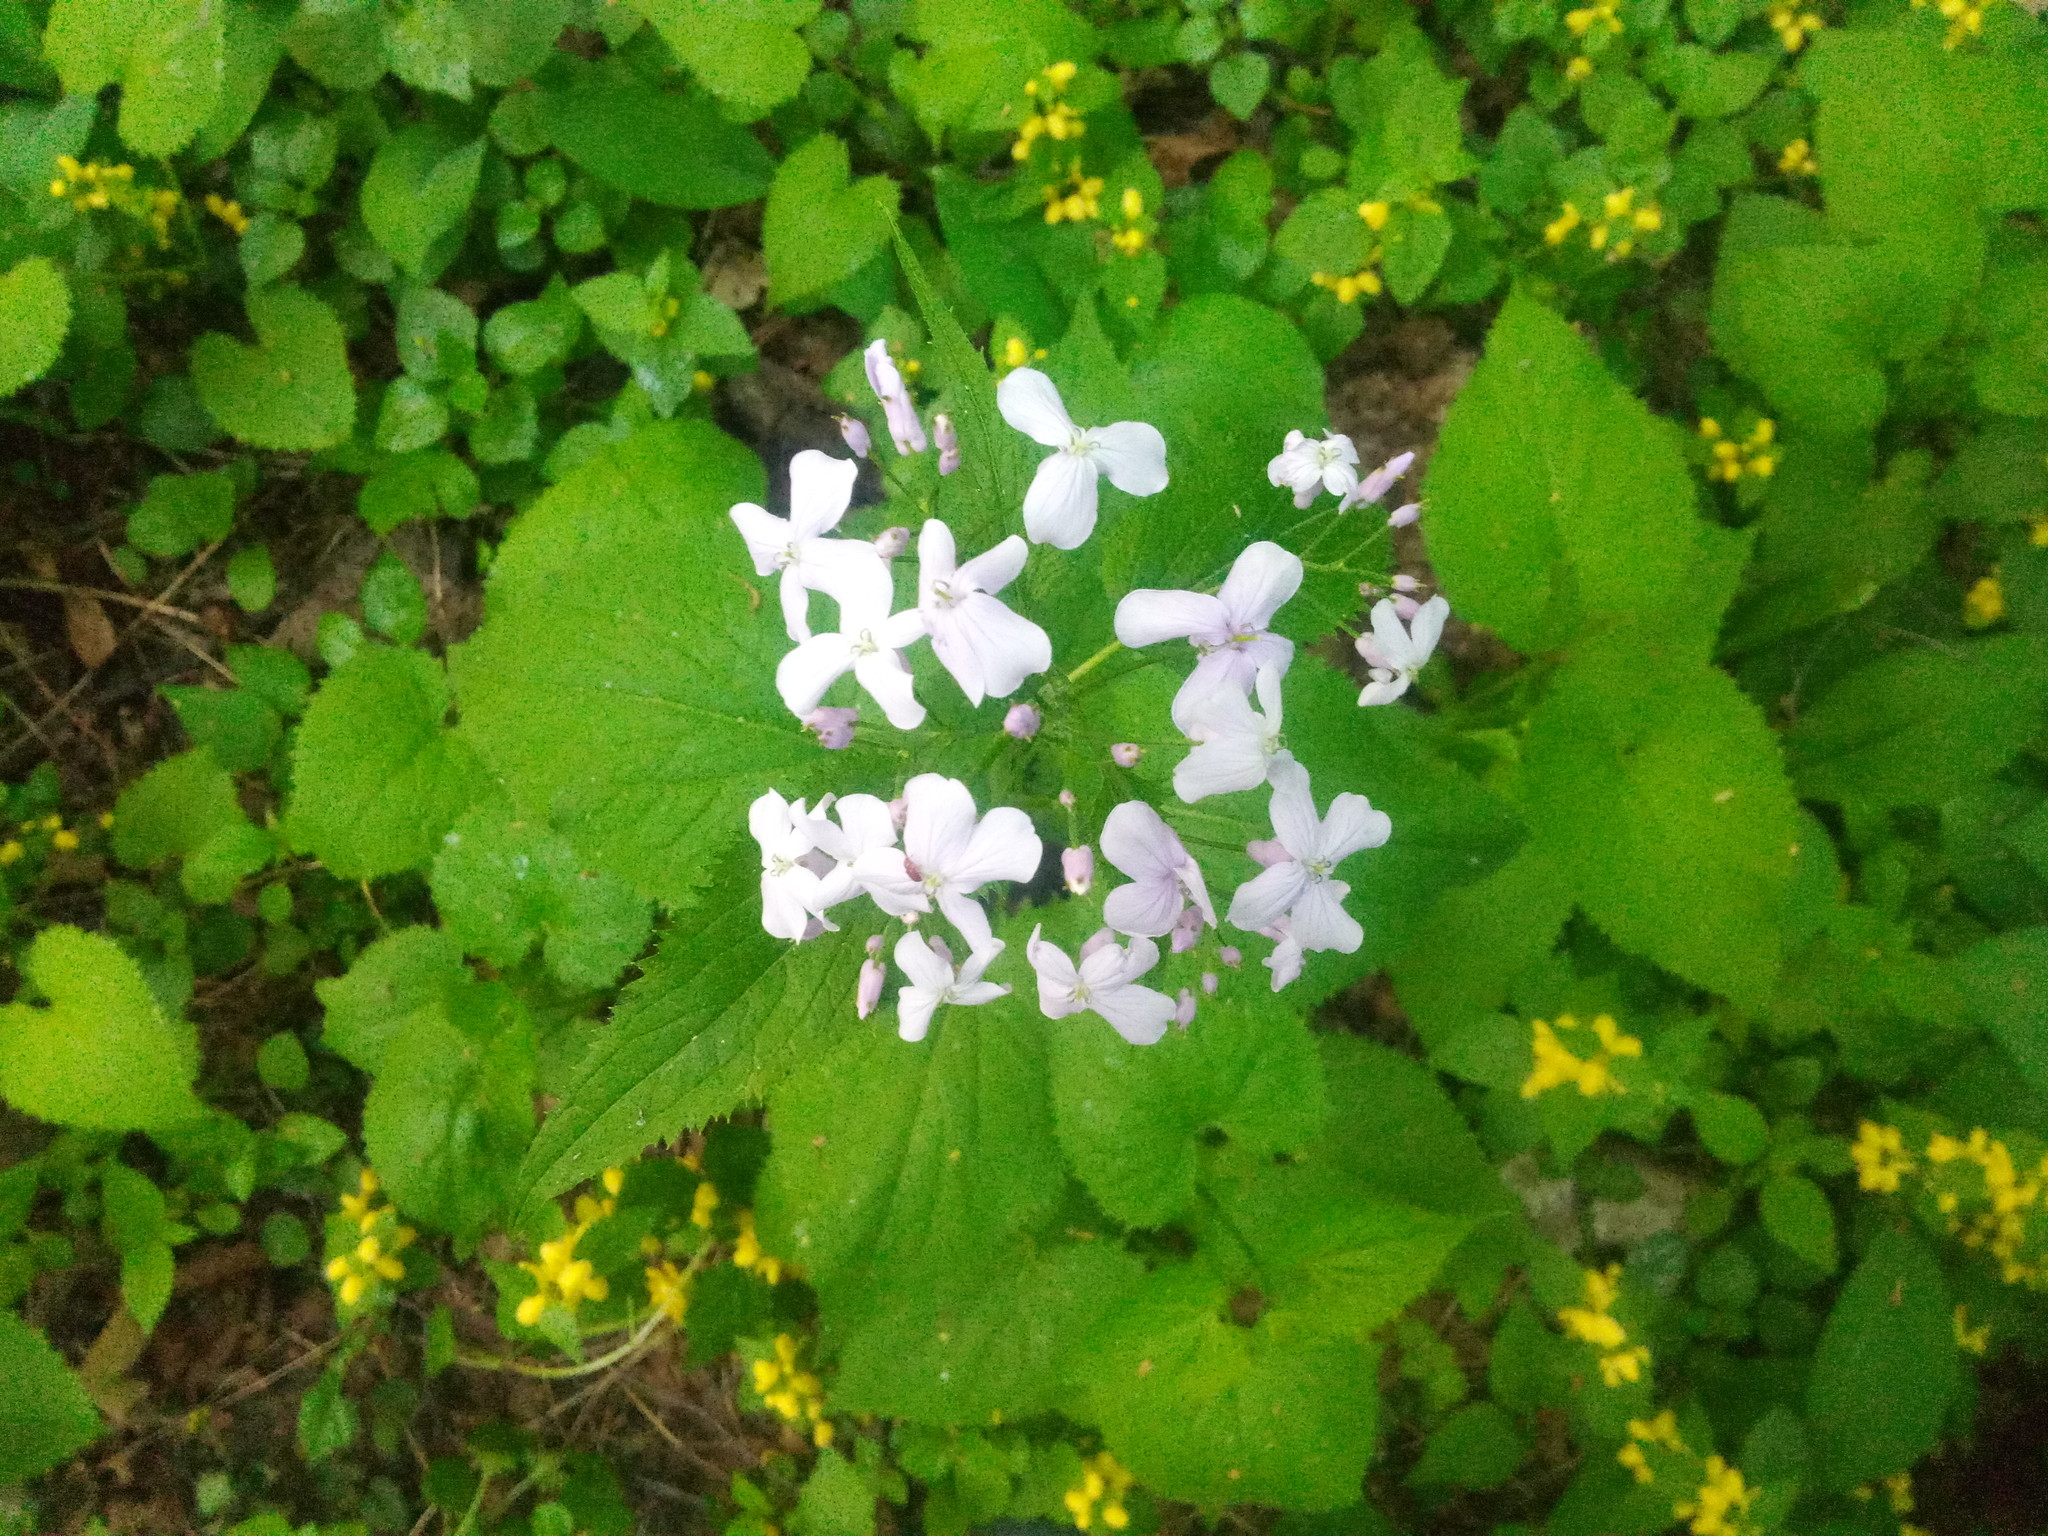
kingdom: Plantae
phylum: Tracheophyta
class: Magnoliopsida
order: Brassicales
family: Brassicaceae
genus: Lunaria
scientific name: Lunaria rediviva
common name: Perennial honesty
